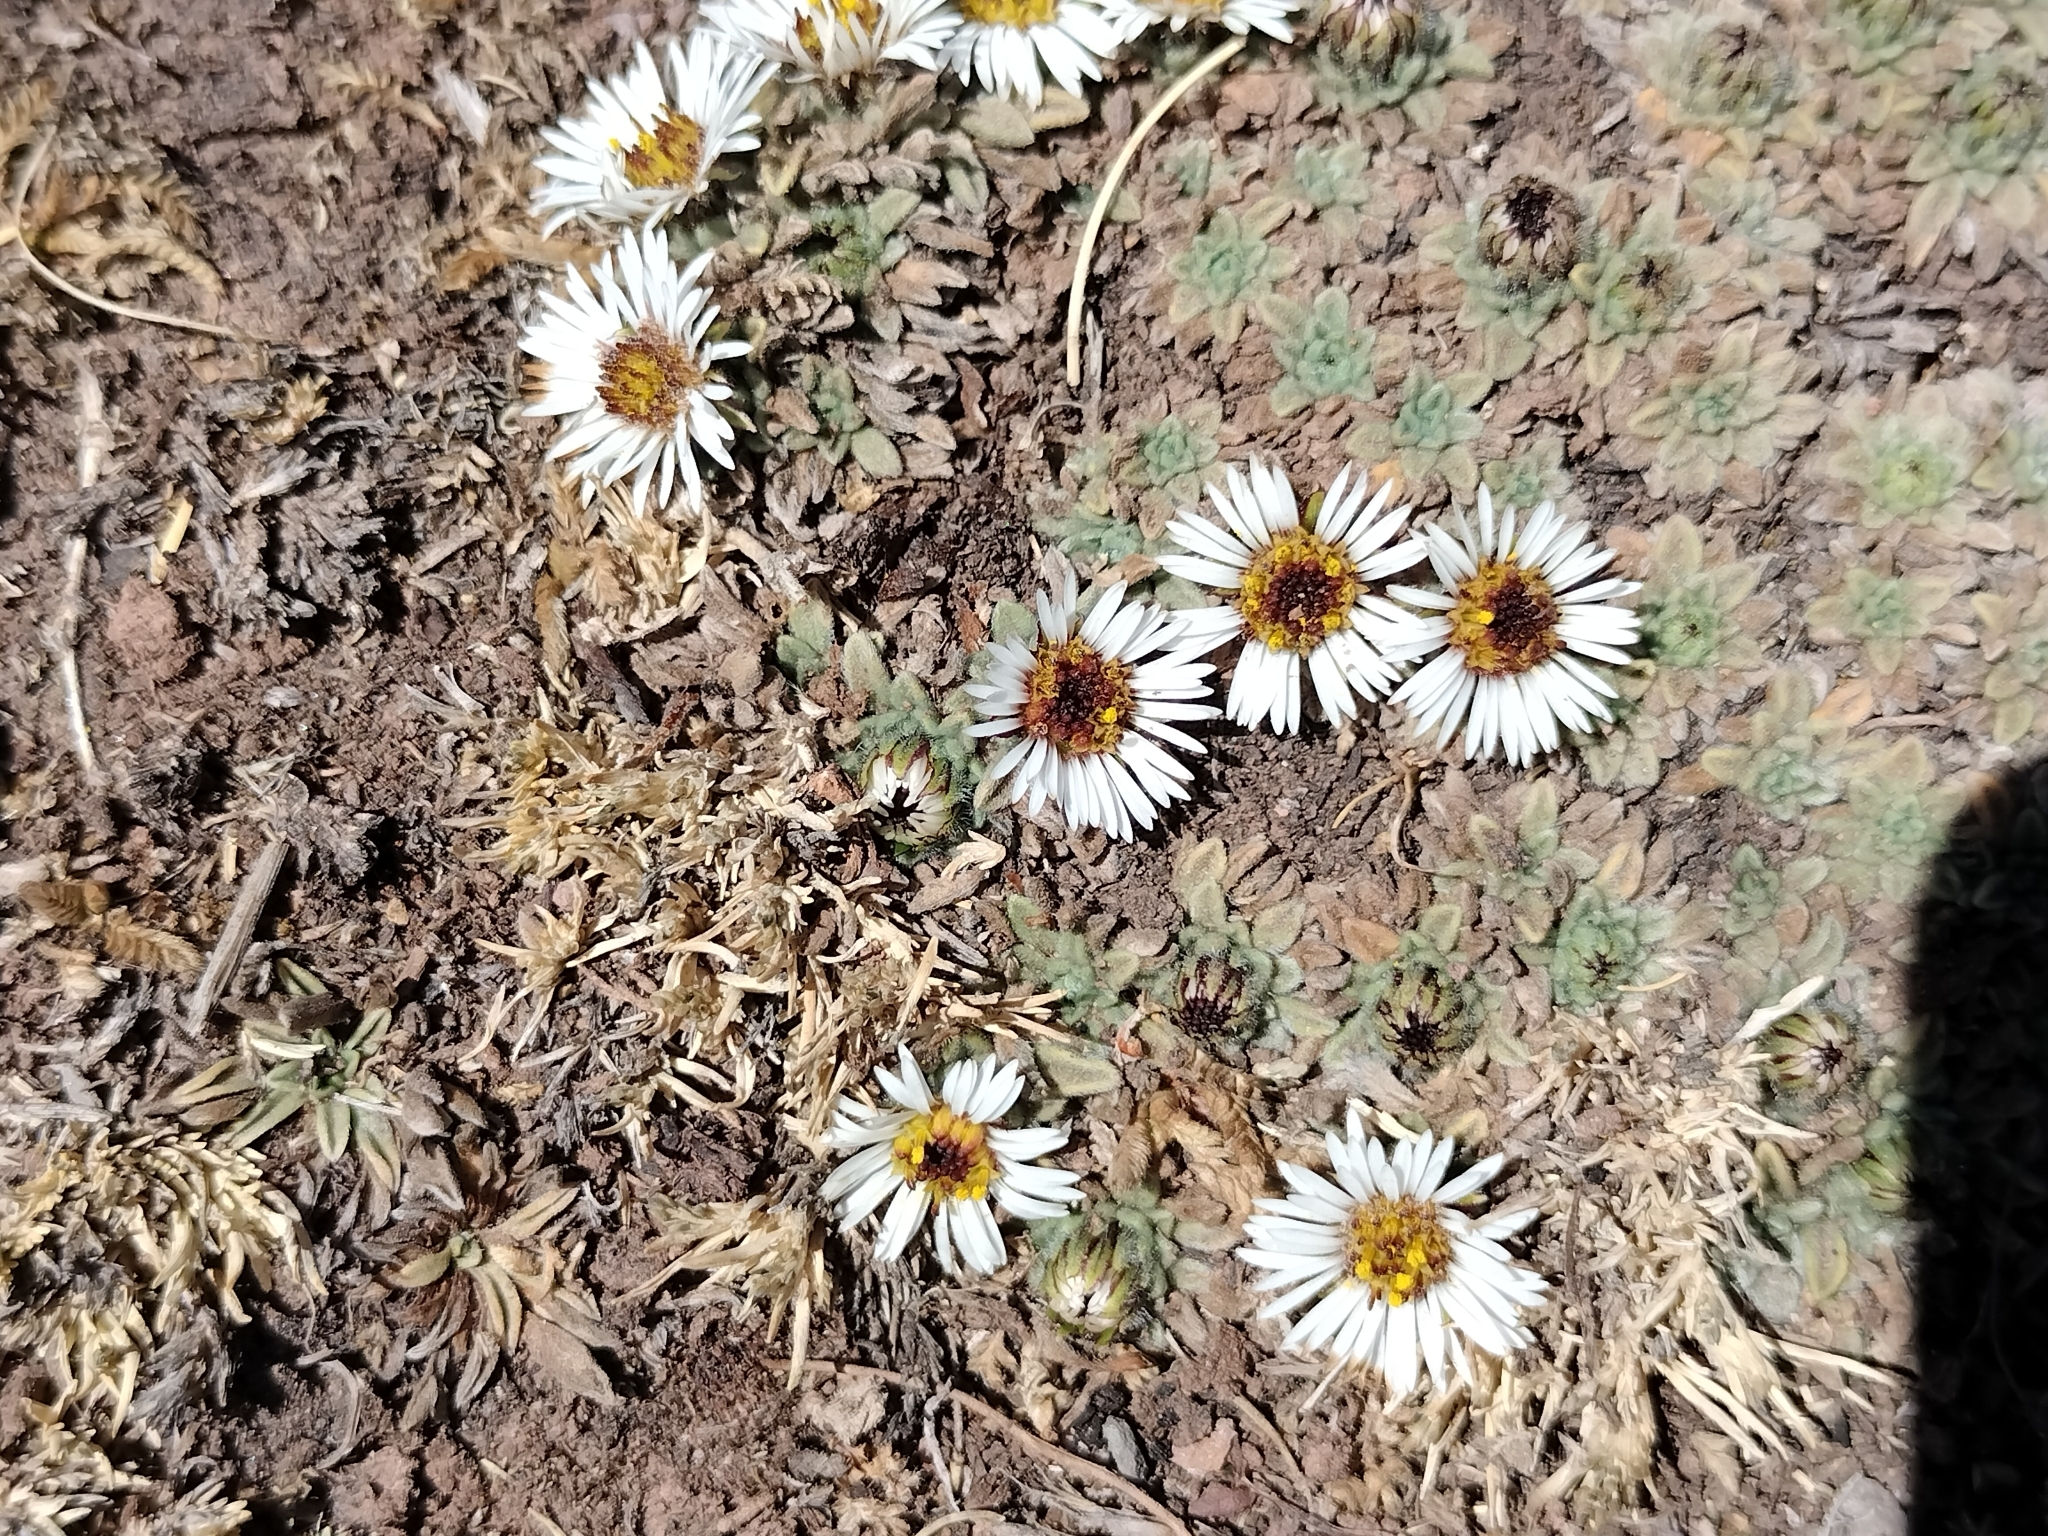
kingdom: Plantae
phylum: Tracheophyta
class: Magnoliopsida
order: Asterales
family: Asteraceae
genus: Erigeron
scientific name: Erigeron rosulatus
